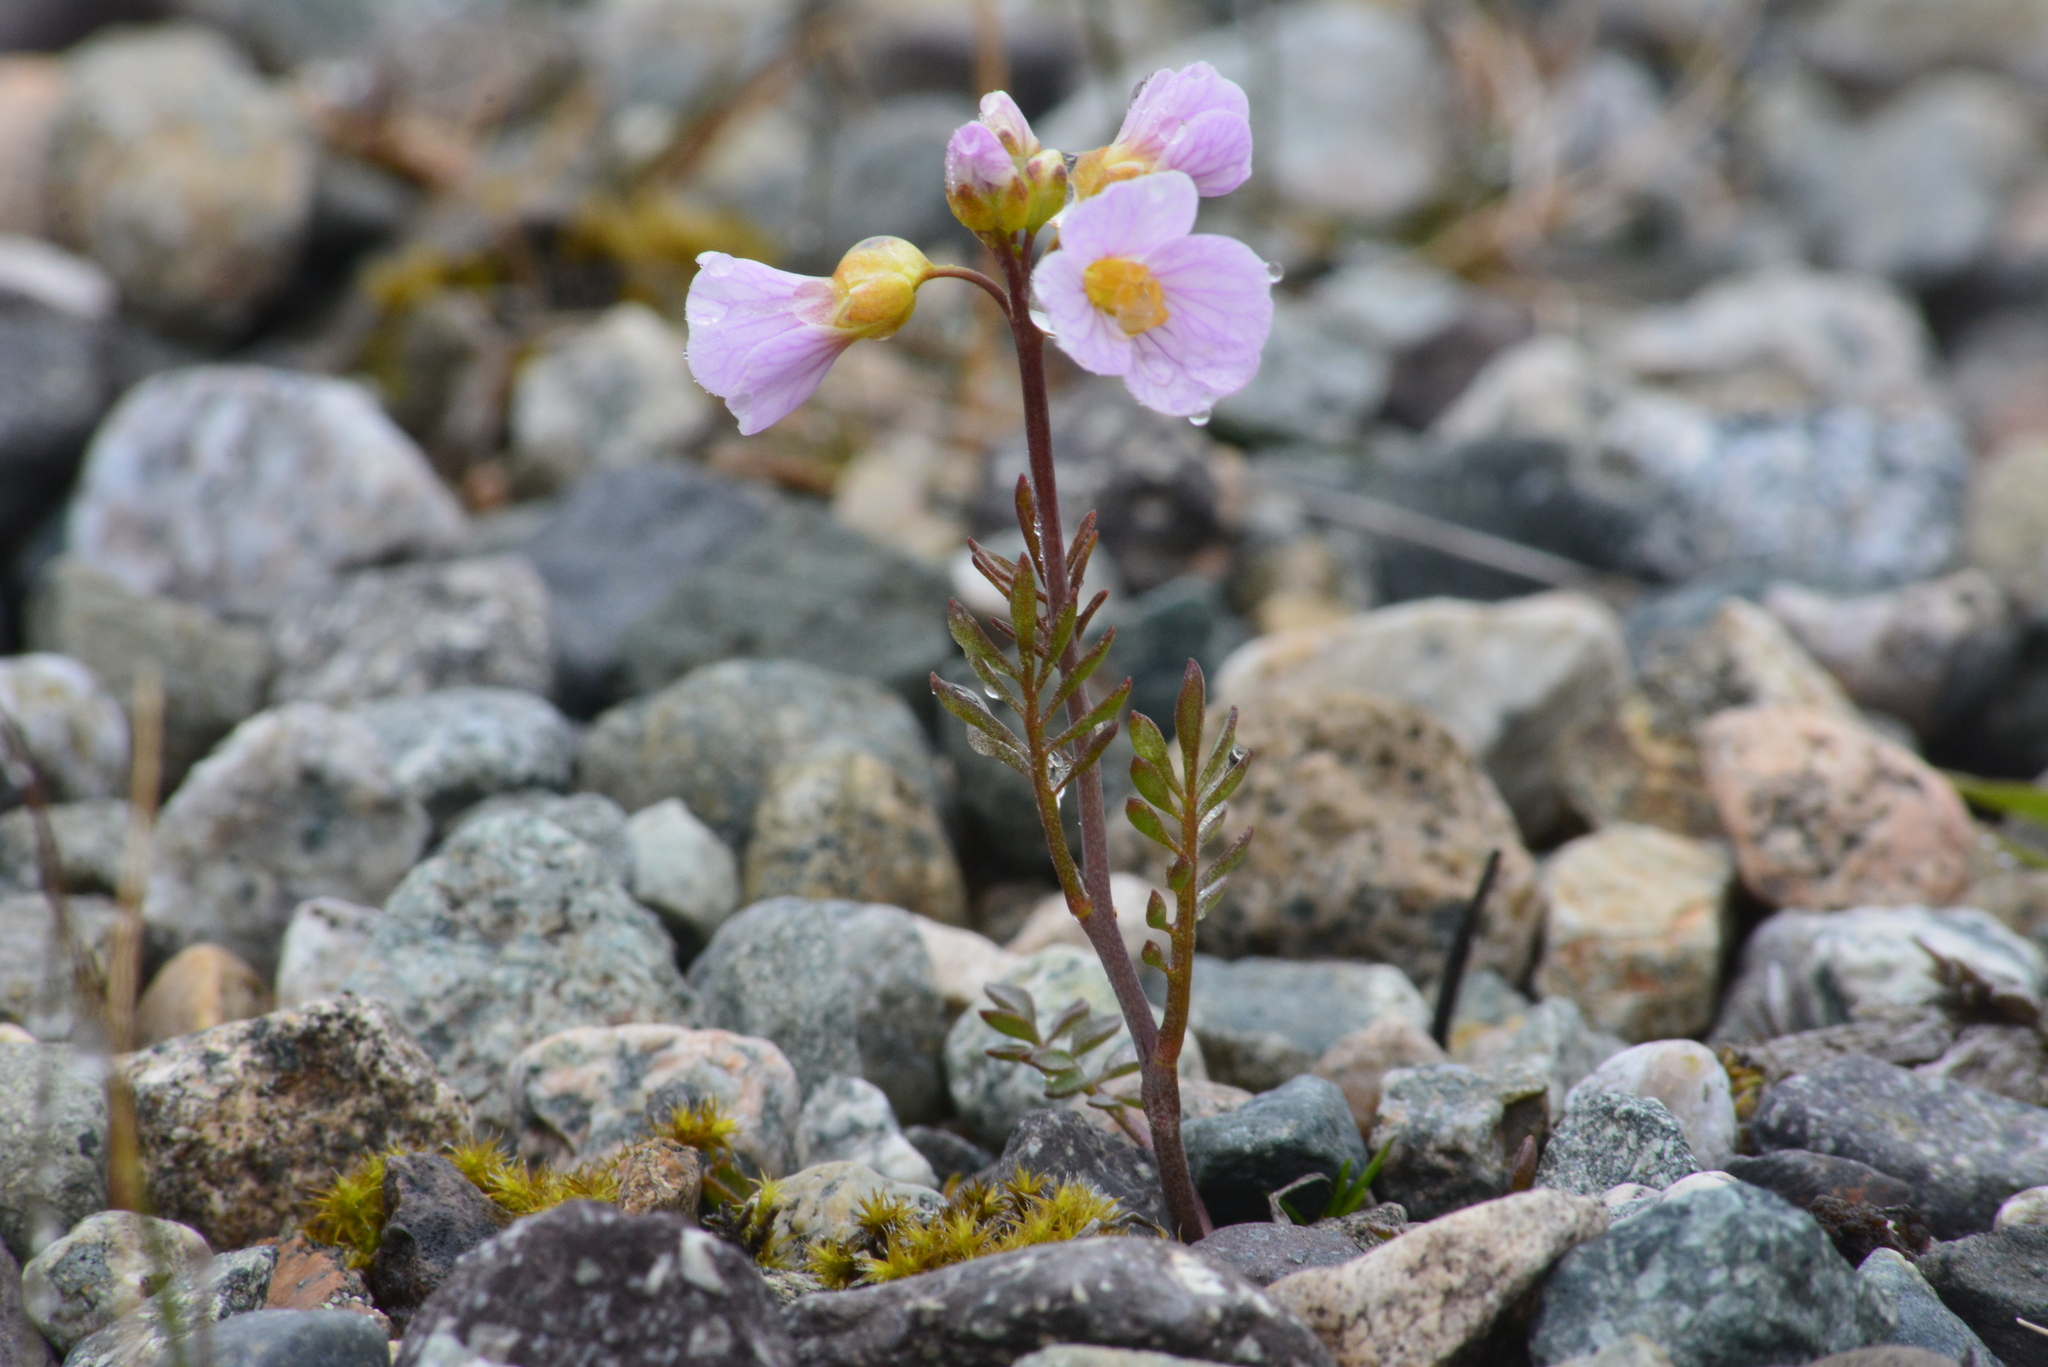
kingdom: Plantae
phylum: Tracheophyta
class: Magnoliopsida
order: Brassicales
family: Brassicaceae
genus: Cardamine
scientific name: Cardamine pratensis
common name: Cuckoo flower
